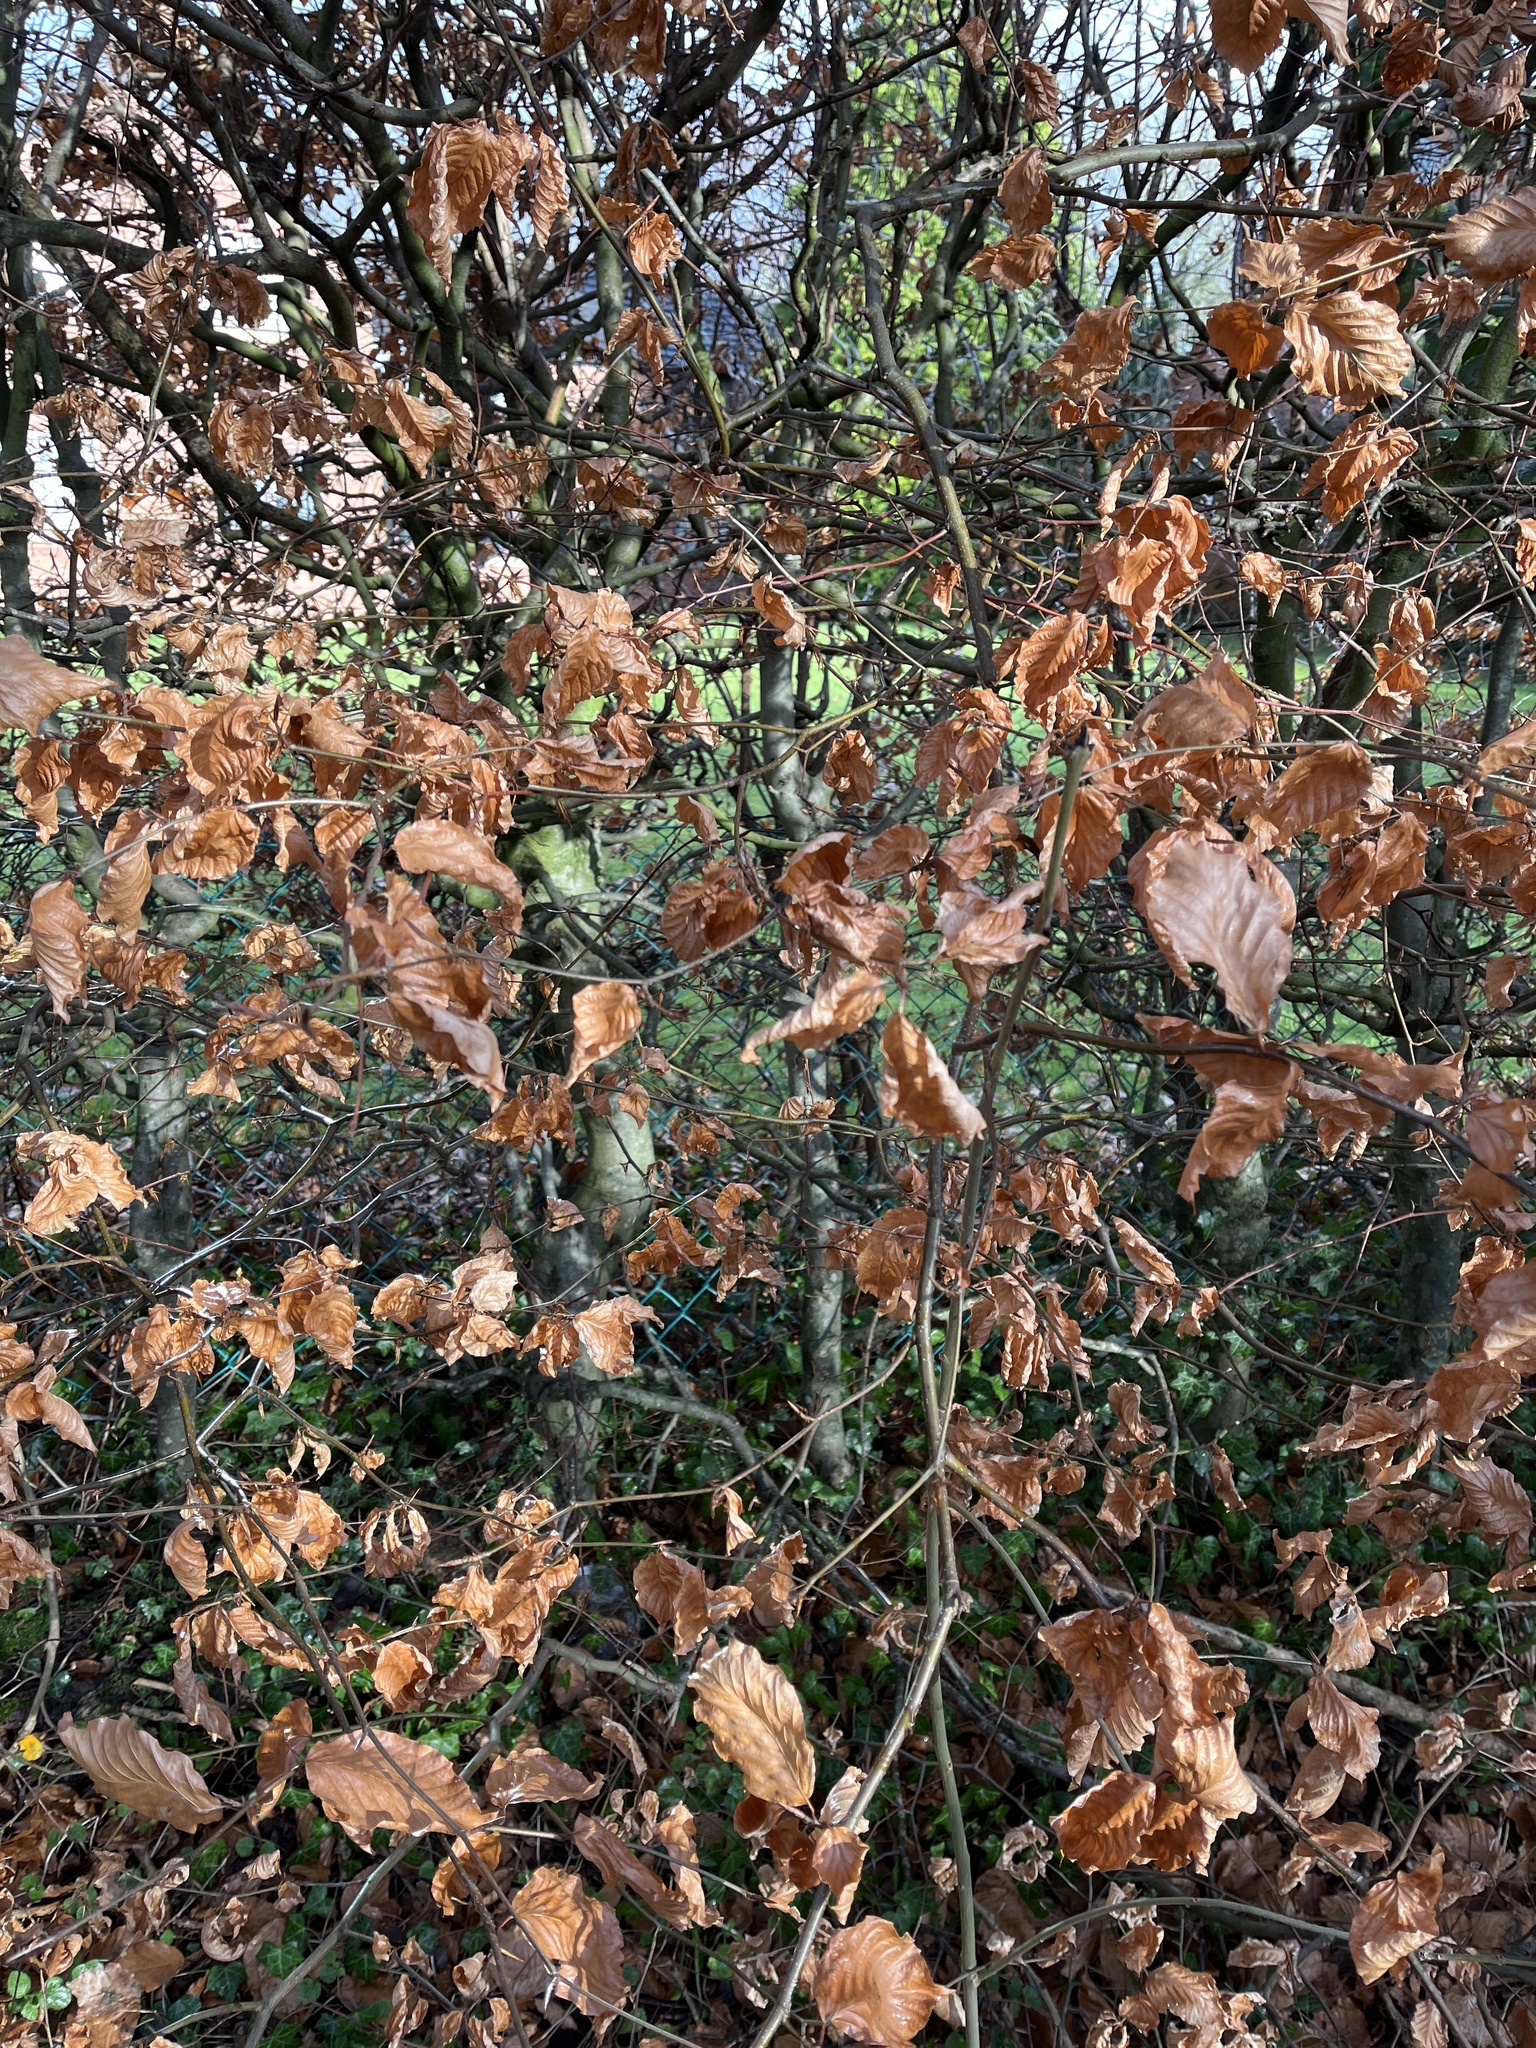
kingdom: Plantae
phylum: Tracheophyta
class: Magnoliopsida
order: Fagales
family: Fagaceae
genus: Fagus
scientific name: Fagus sylvatica
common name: Beech
